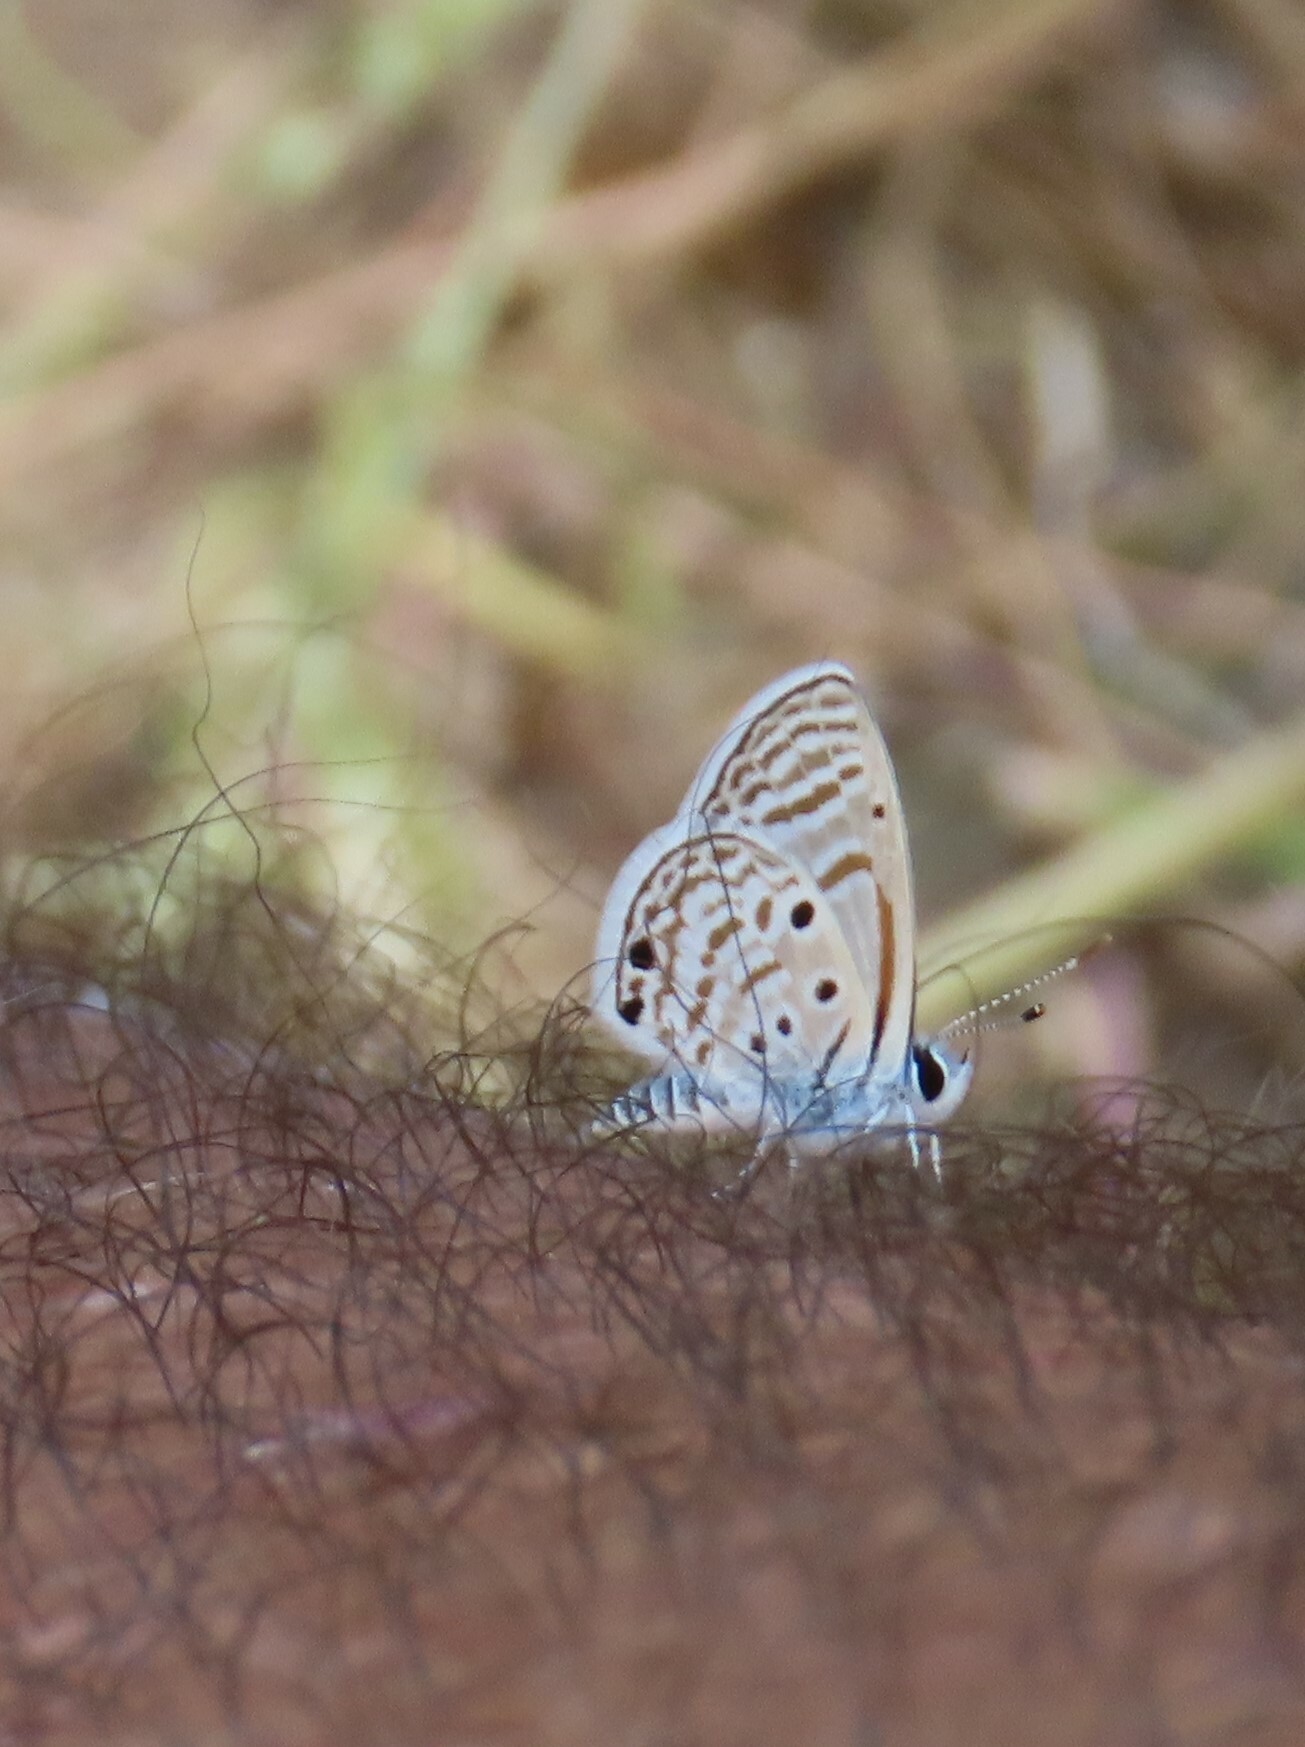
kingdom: Animalia
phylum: Arthropoda
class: Insecta
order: Lepidoptera
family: Lycaenidae
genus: Azanus
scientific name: Azanus ubaldus
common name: Desert babul blue
